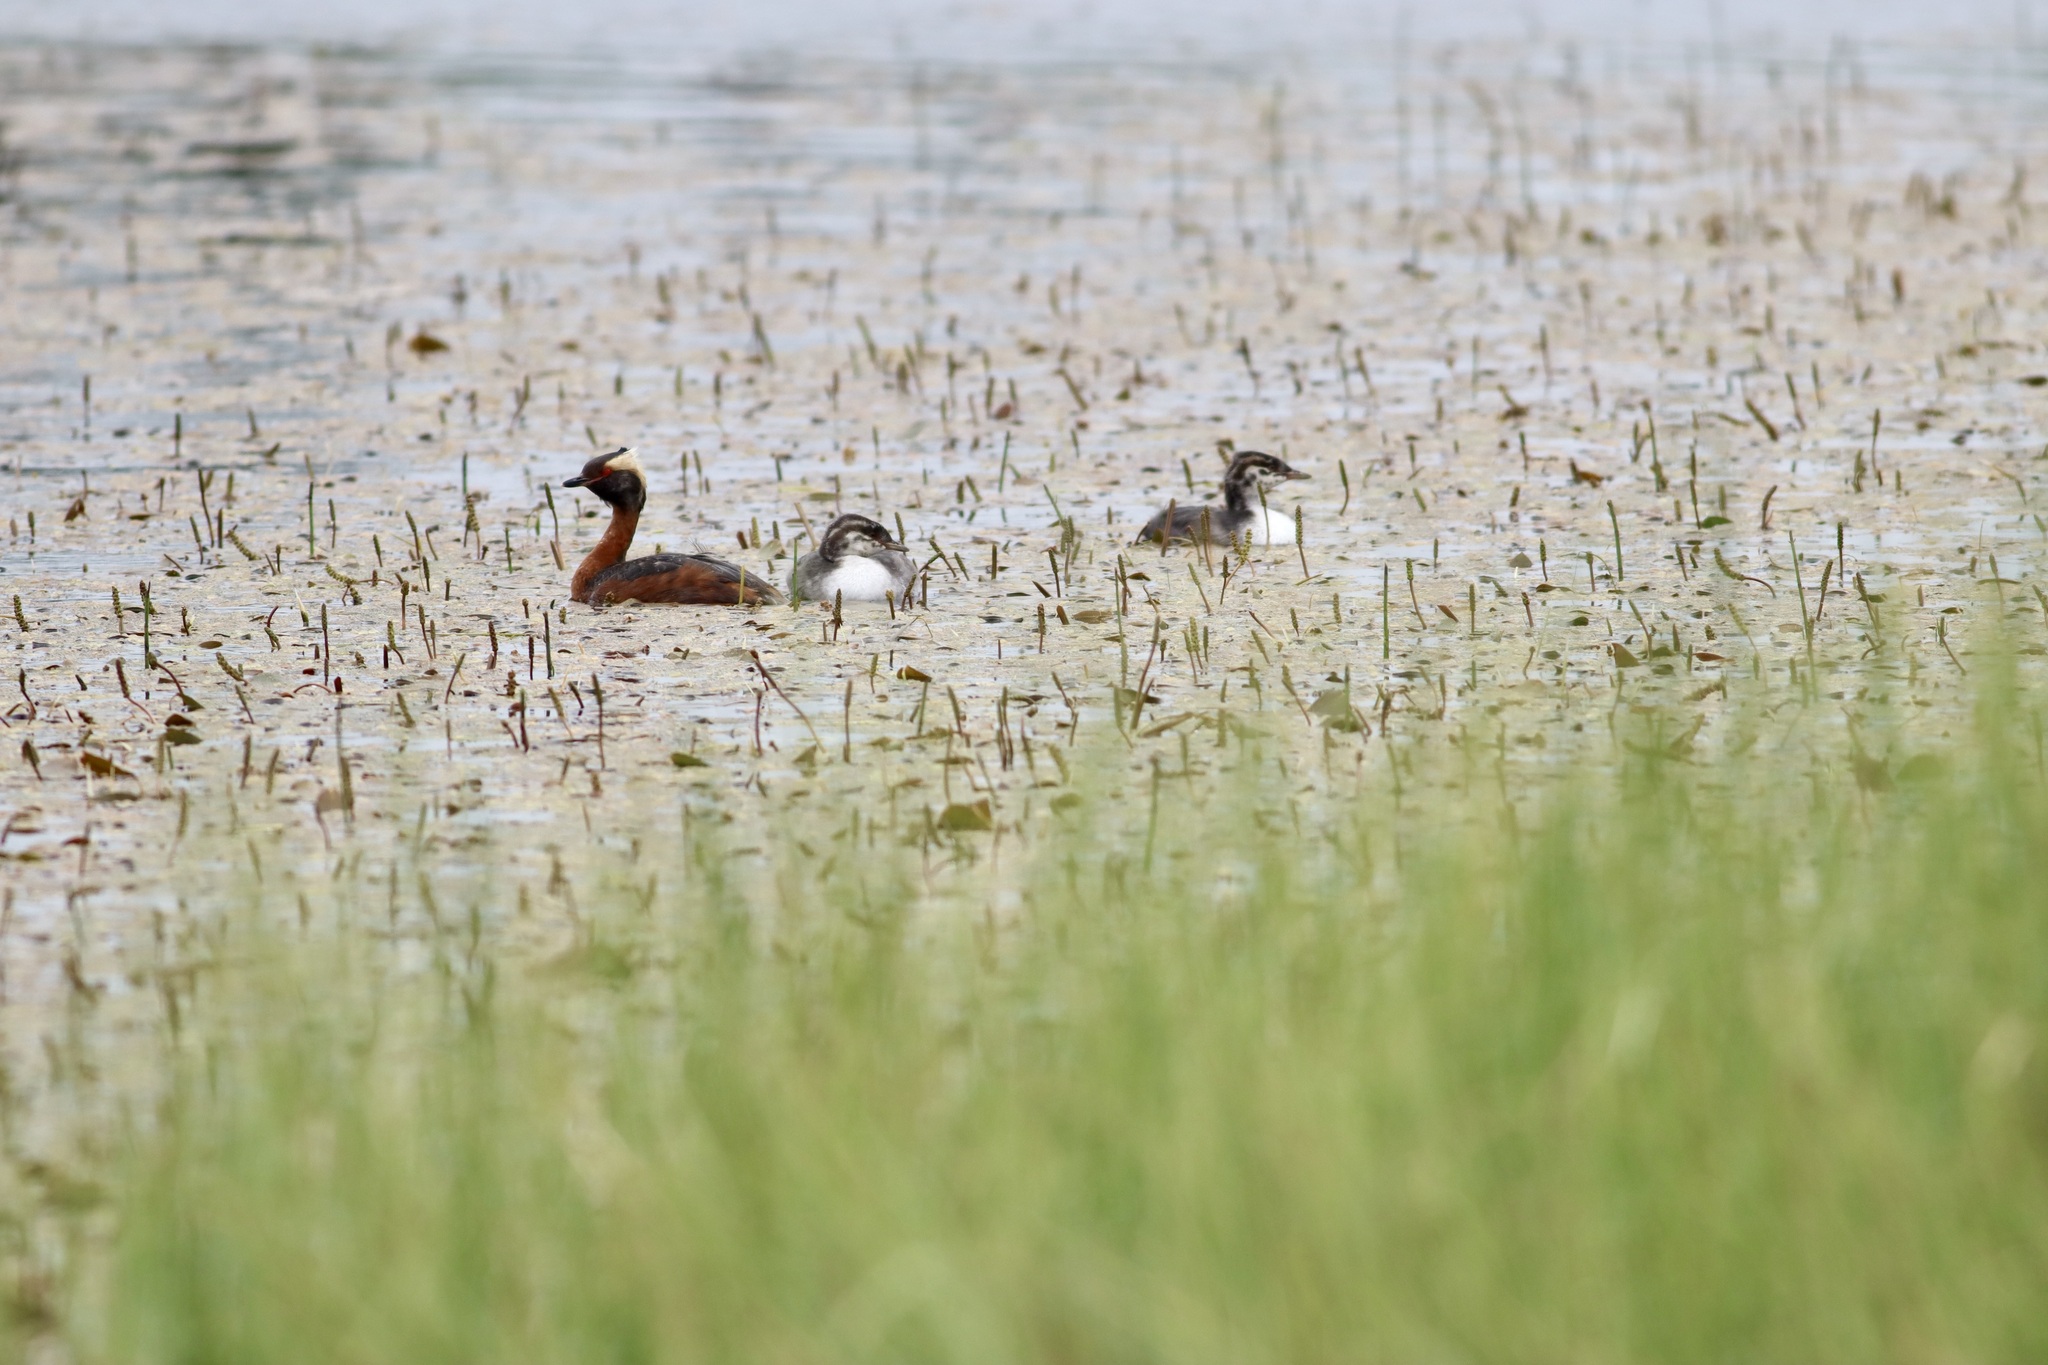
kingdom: Animalia
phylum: Chordata
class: Aves
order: Podicipediformes
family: Podicipedidae
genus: Podiceps
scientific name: Podiceps auritus
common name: Horned grebe
